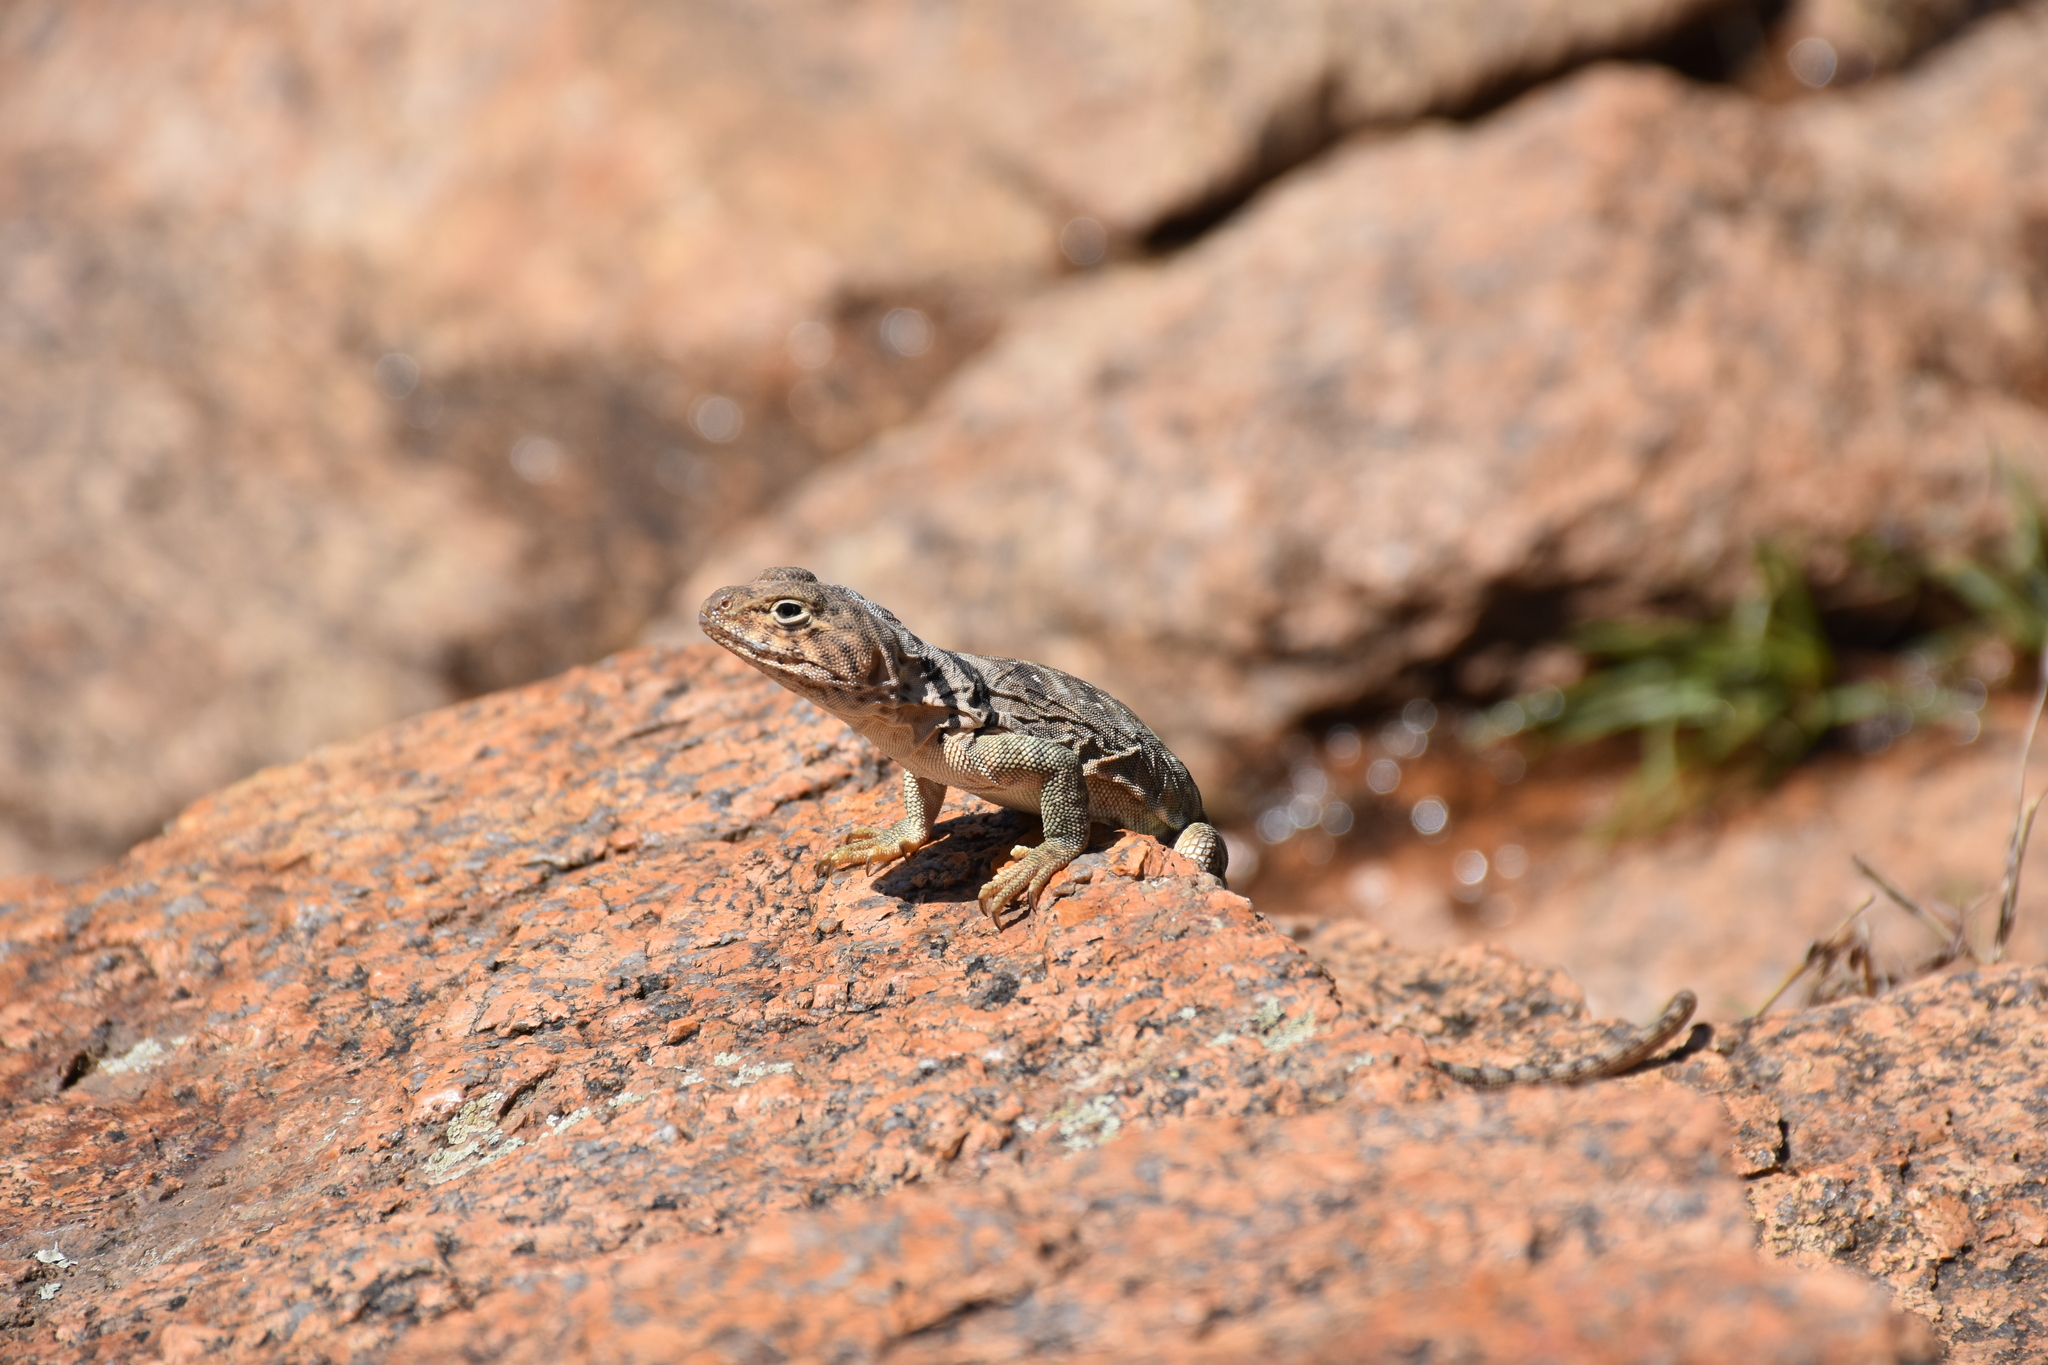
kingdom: Animalia
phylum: Chordata
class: Squamata
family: Crotaphytidae
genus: Crotaphytus
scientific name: Crotaphytus collaris
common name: Collared lizard
